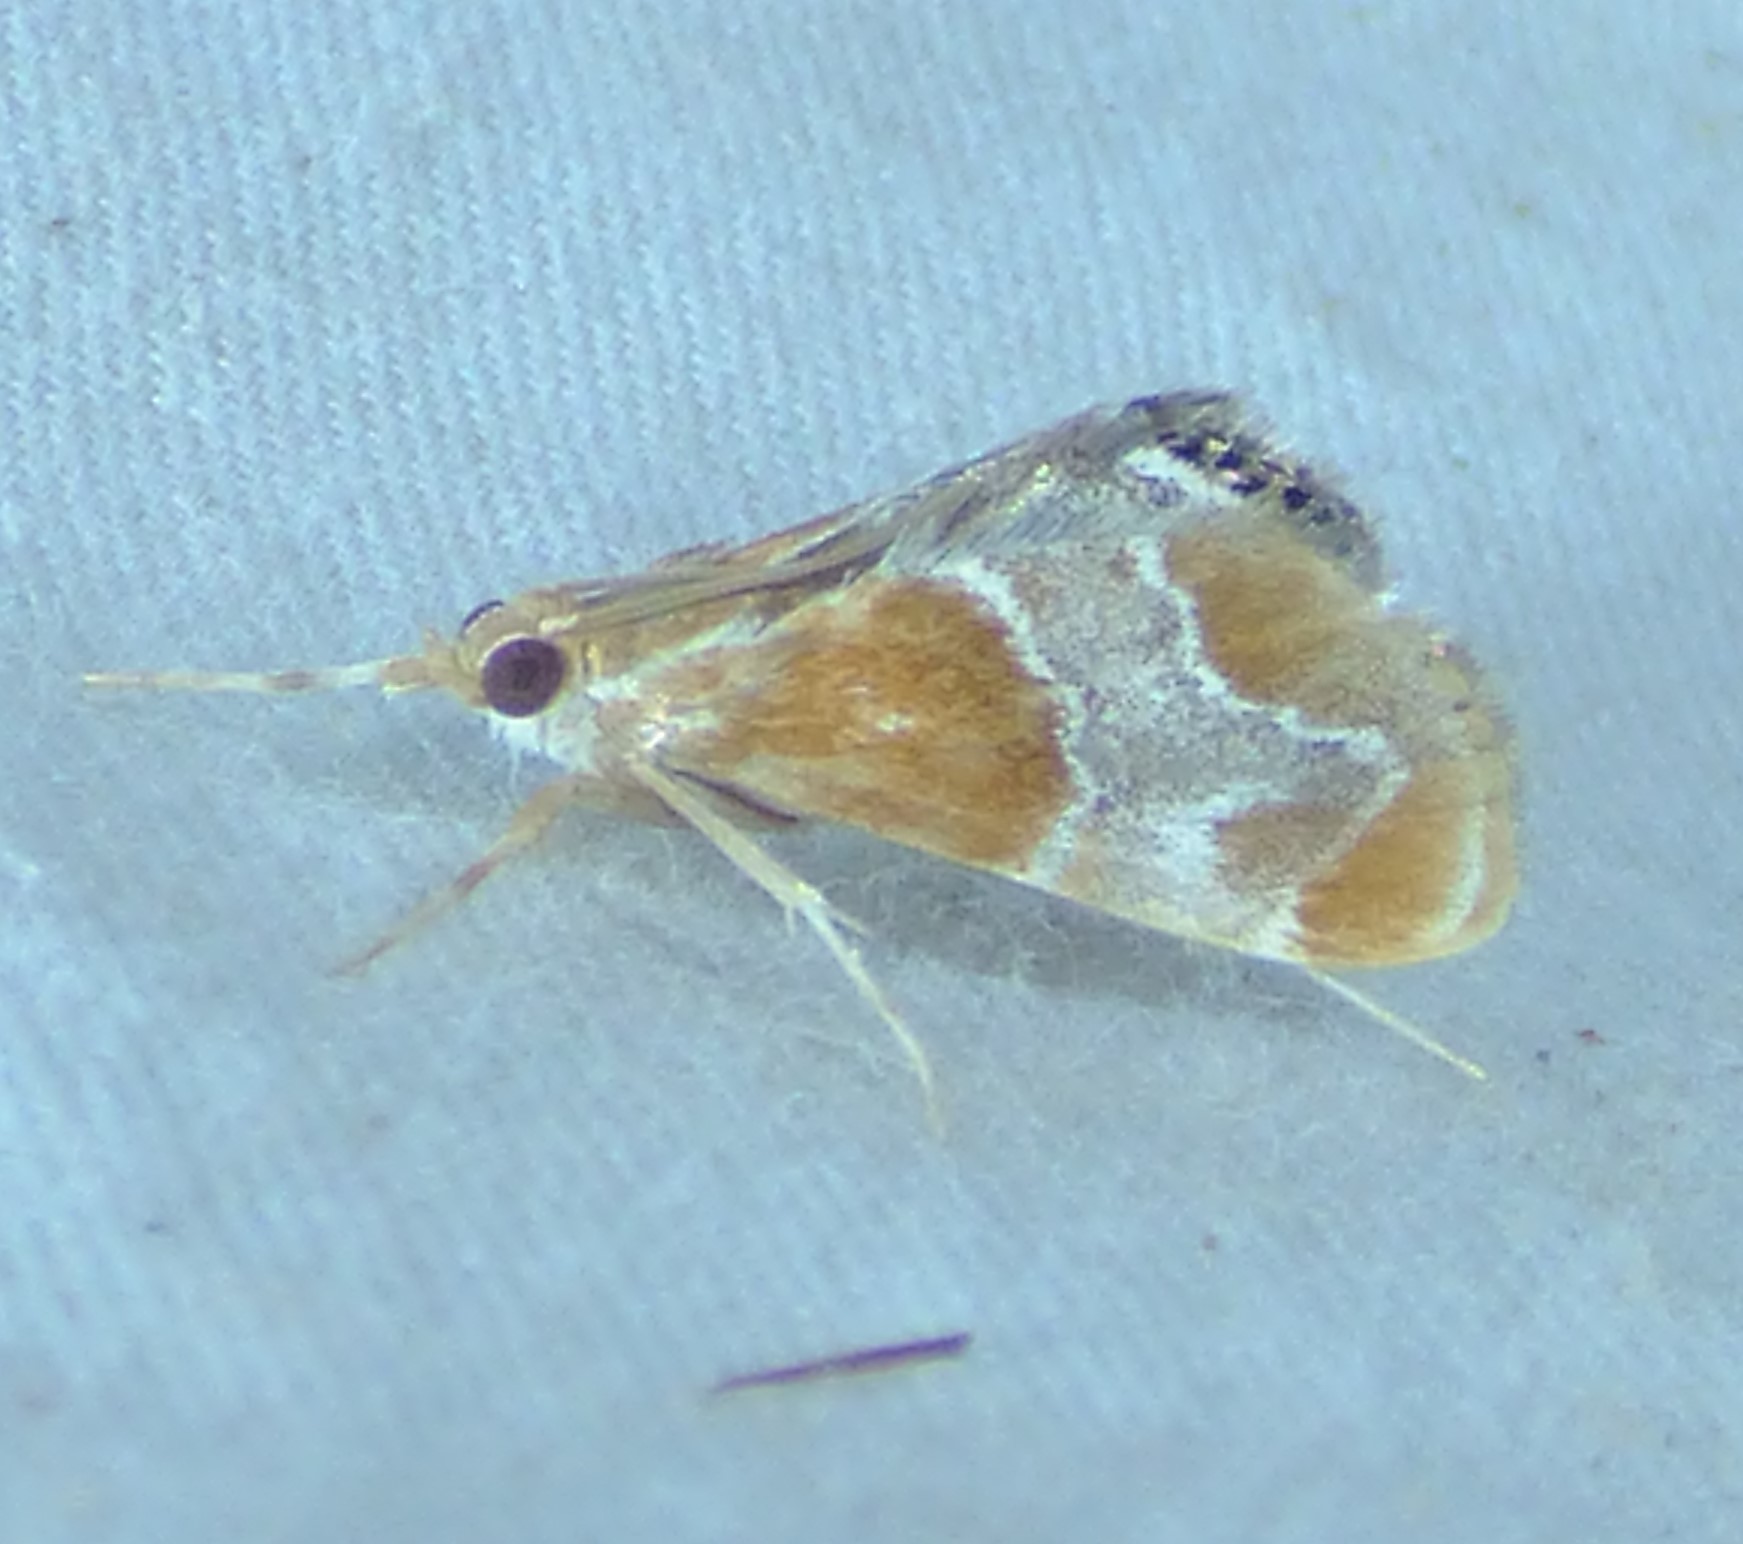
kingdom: Animalia
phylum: Arthropoda
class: Insecta
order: Lepidoptera
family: Crambidae
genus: Chalcoela
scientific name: Chalcoela pegasalis
